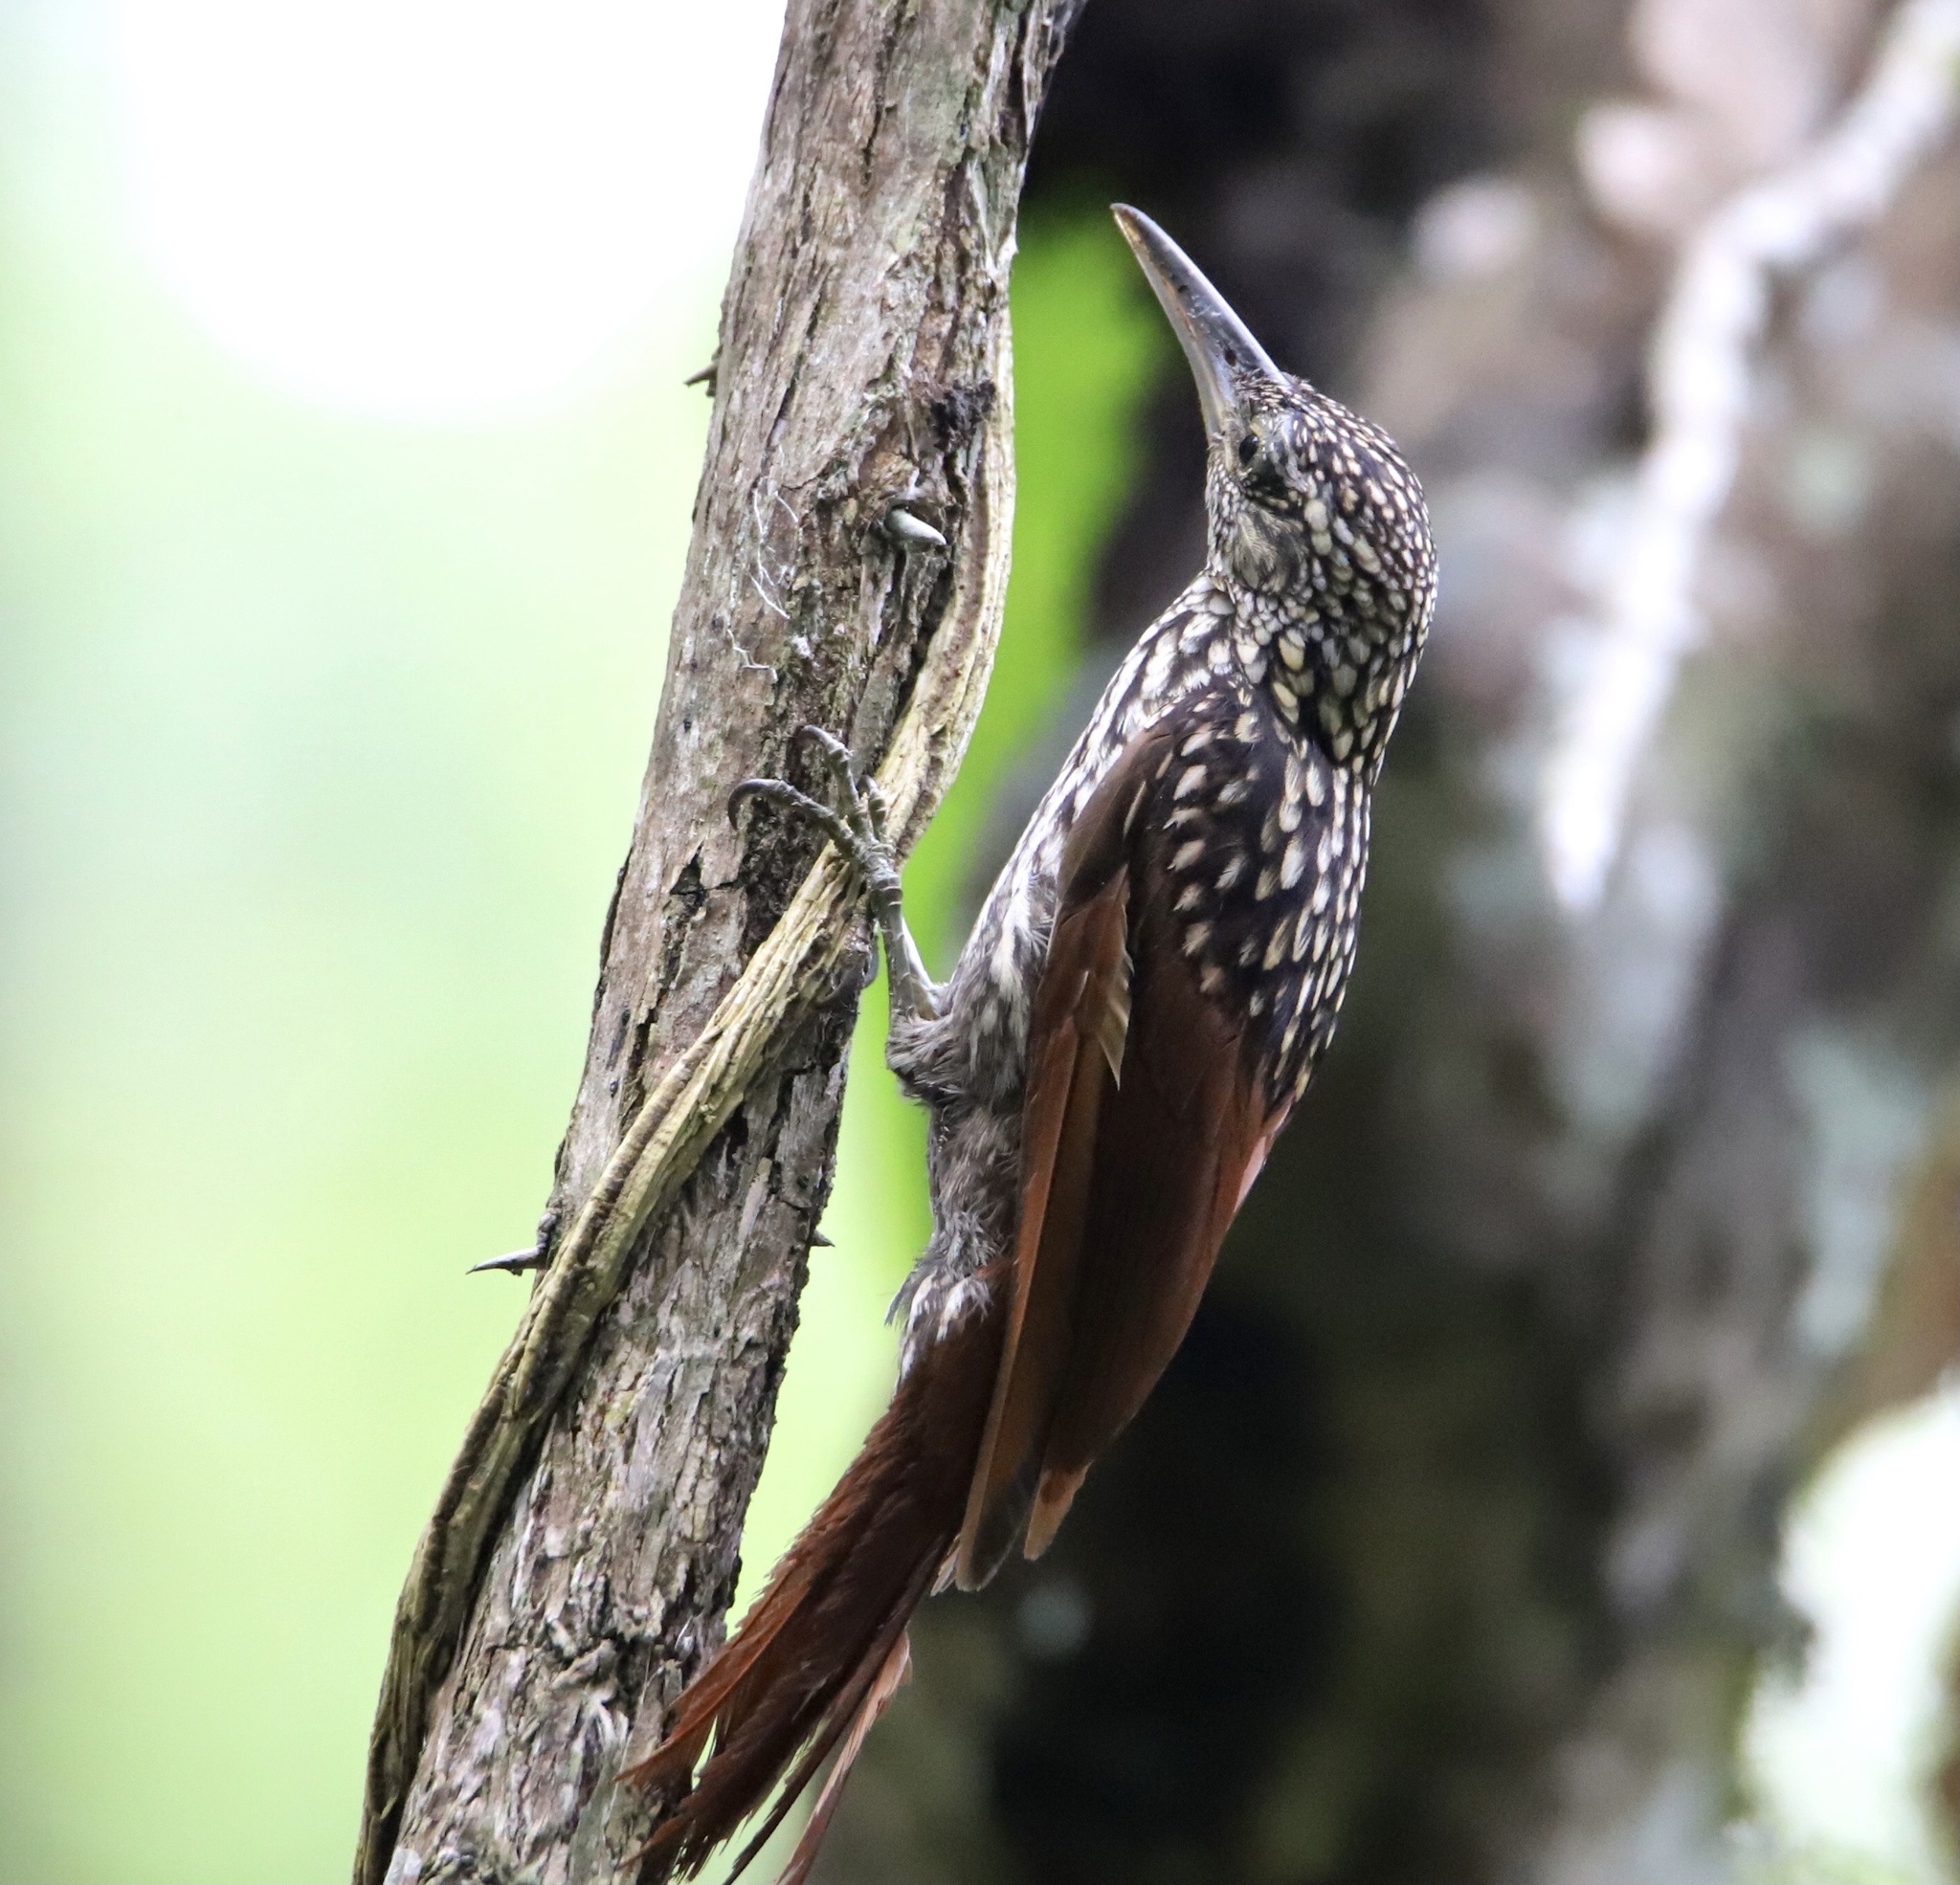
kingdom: Animalia
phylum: Chordata
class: Aves
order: Passeriformes
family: Furnariidae
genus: Xiphorhynchus
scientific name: Xiphorhynchus lachrymosus
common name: Black-striped woodcreeper
